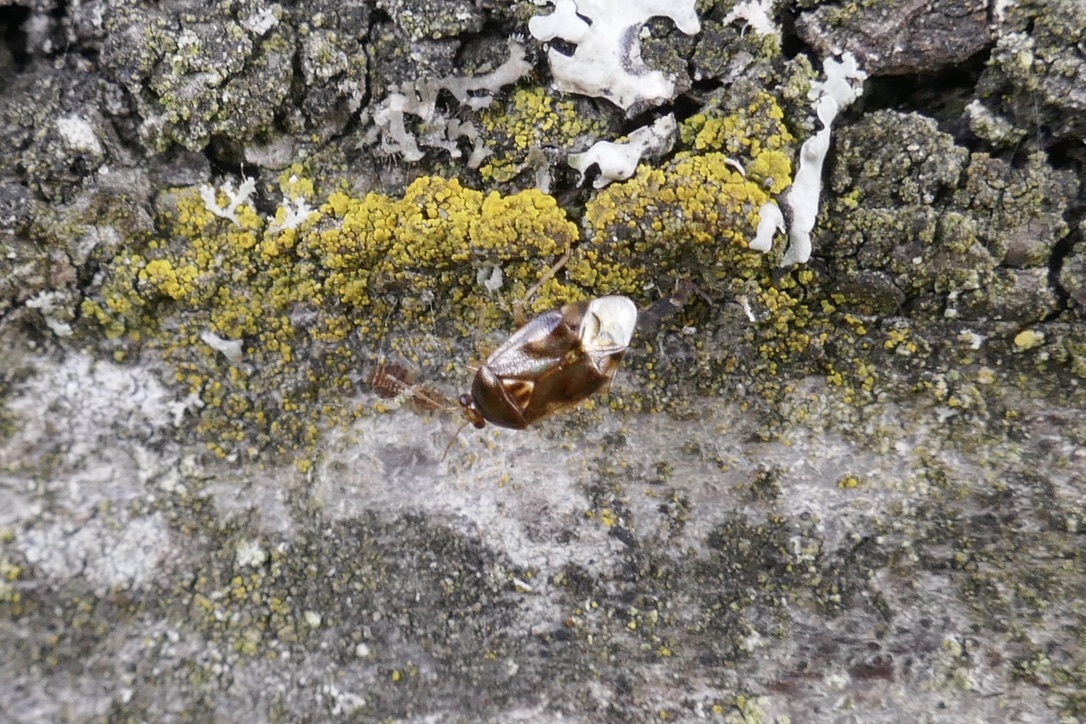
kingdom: Animalia
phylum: Arthropoda
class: Insecta
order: Hemiptera
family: Miridae
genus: Deraeocoris
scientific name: Deraeocoris lutescens
